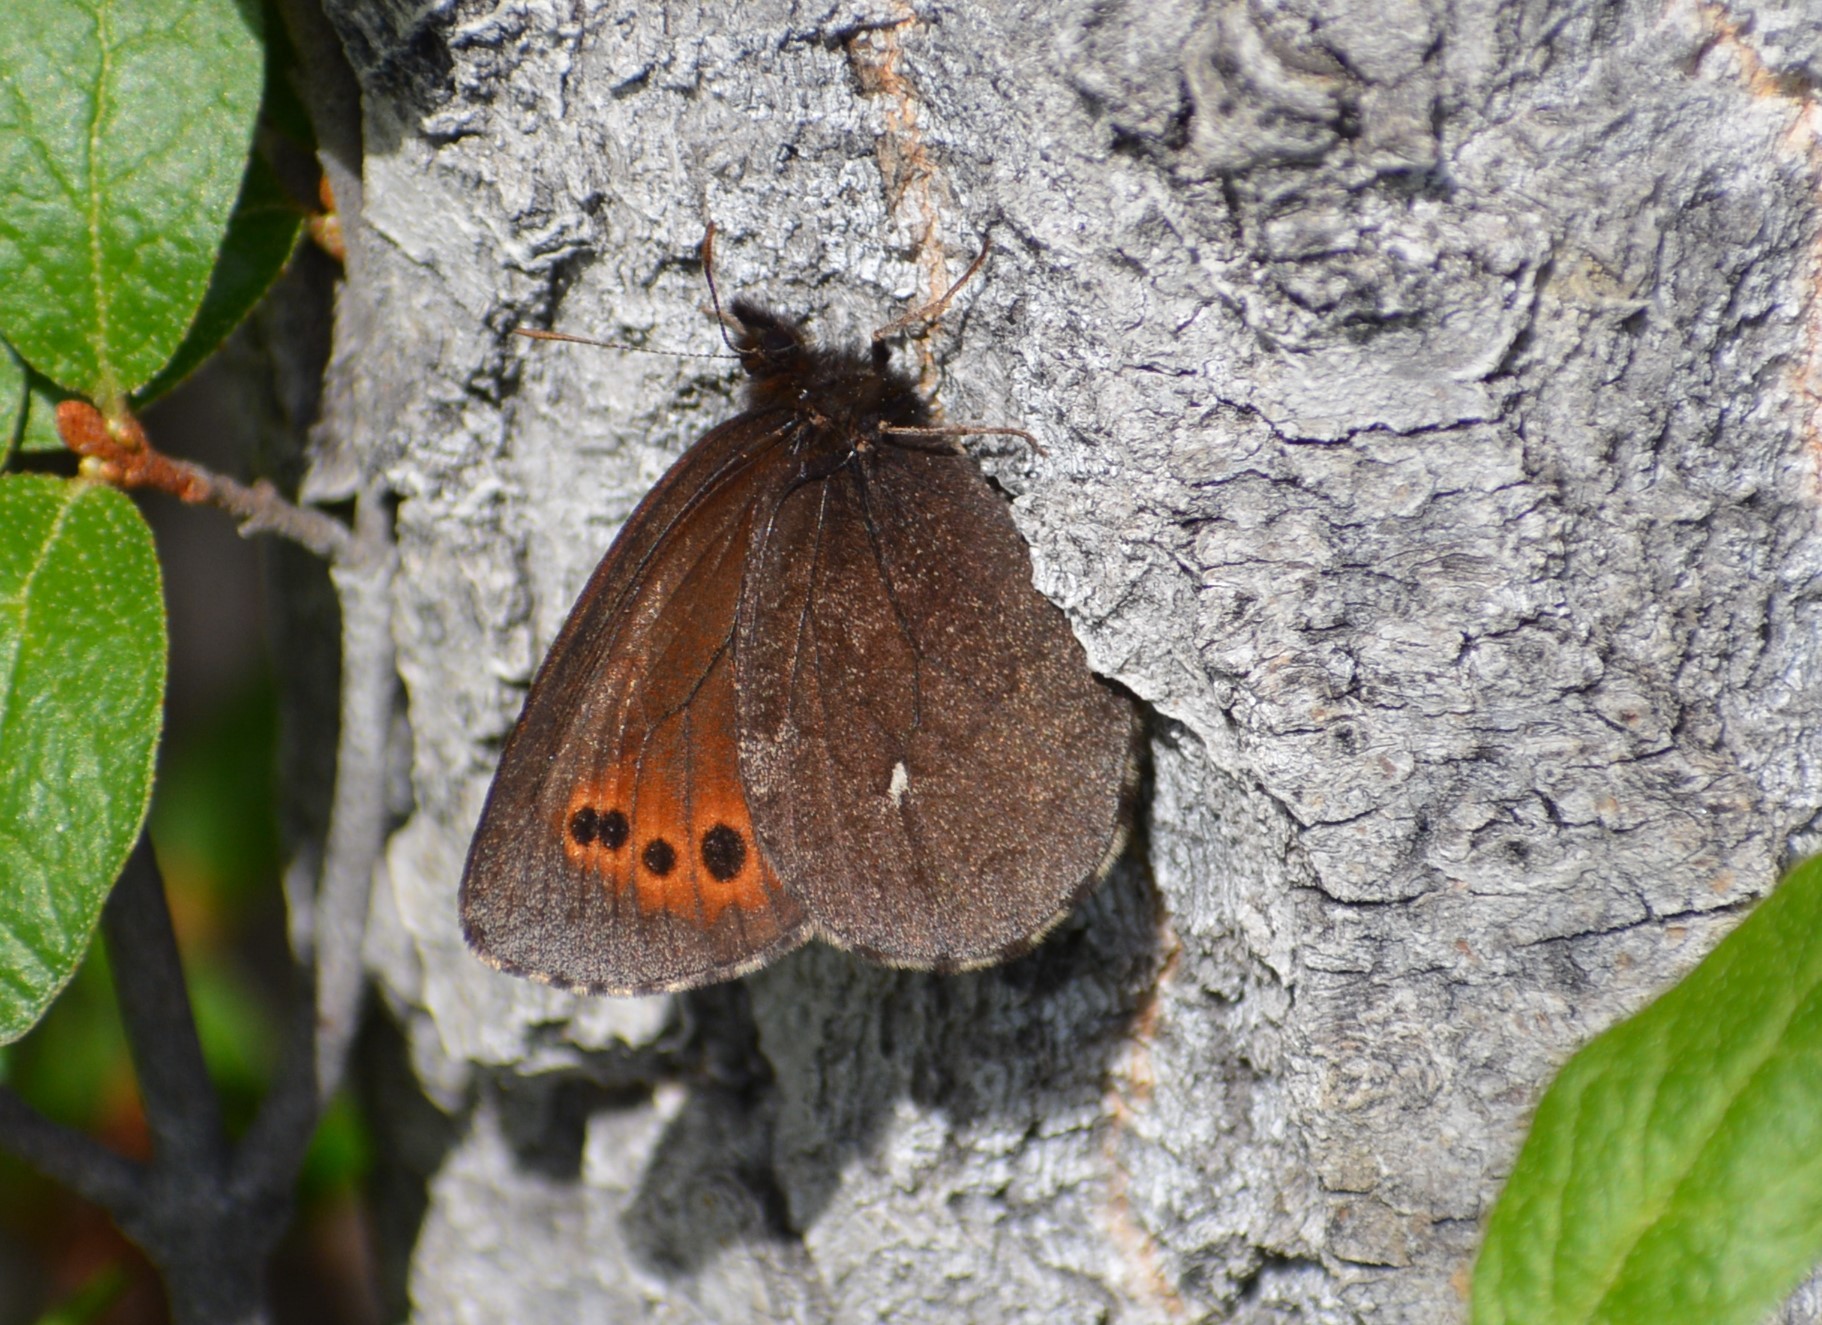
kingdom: Animalia
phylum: Arthropoda
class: Insecta
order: Lepidoptera
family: Nymphalidae
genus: Erebia
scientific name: Erebia disa
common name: Arctic ringlet
